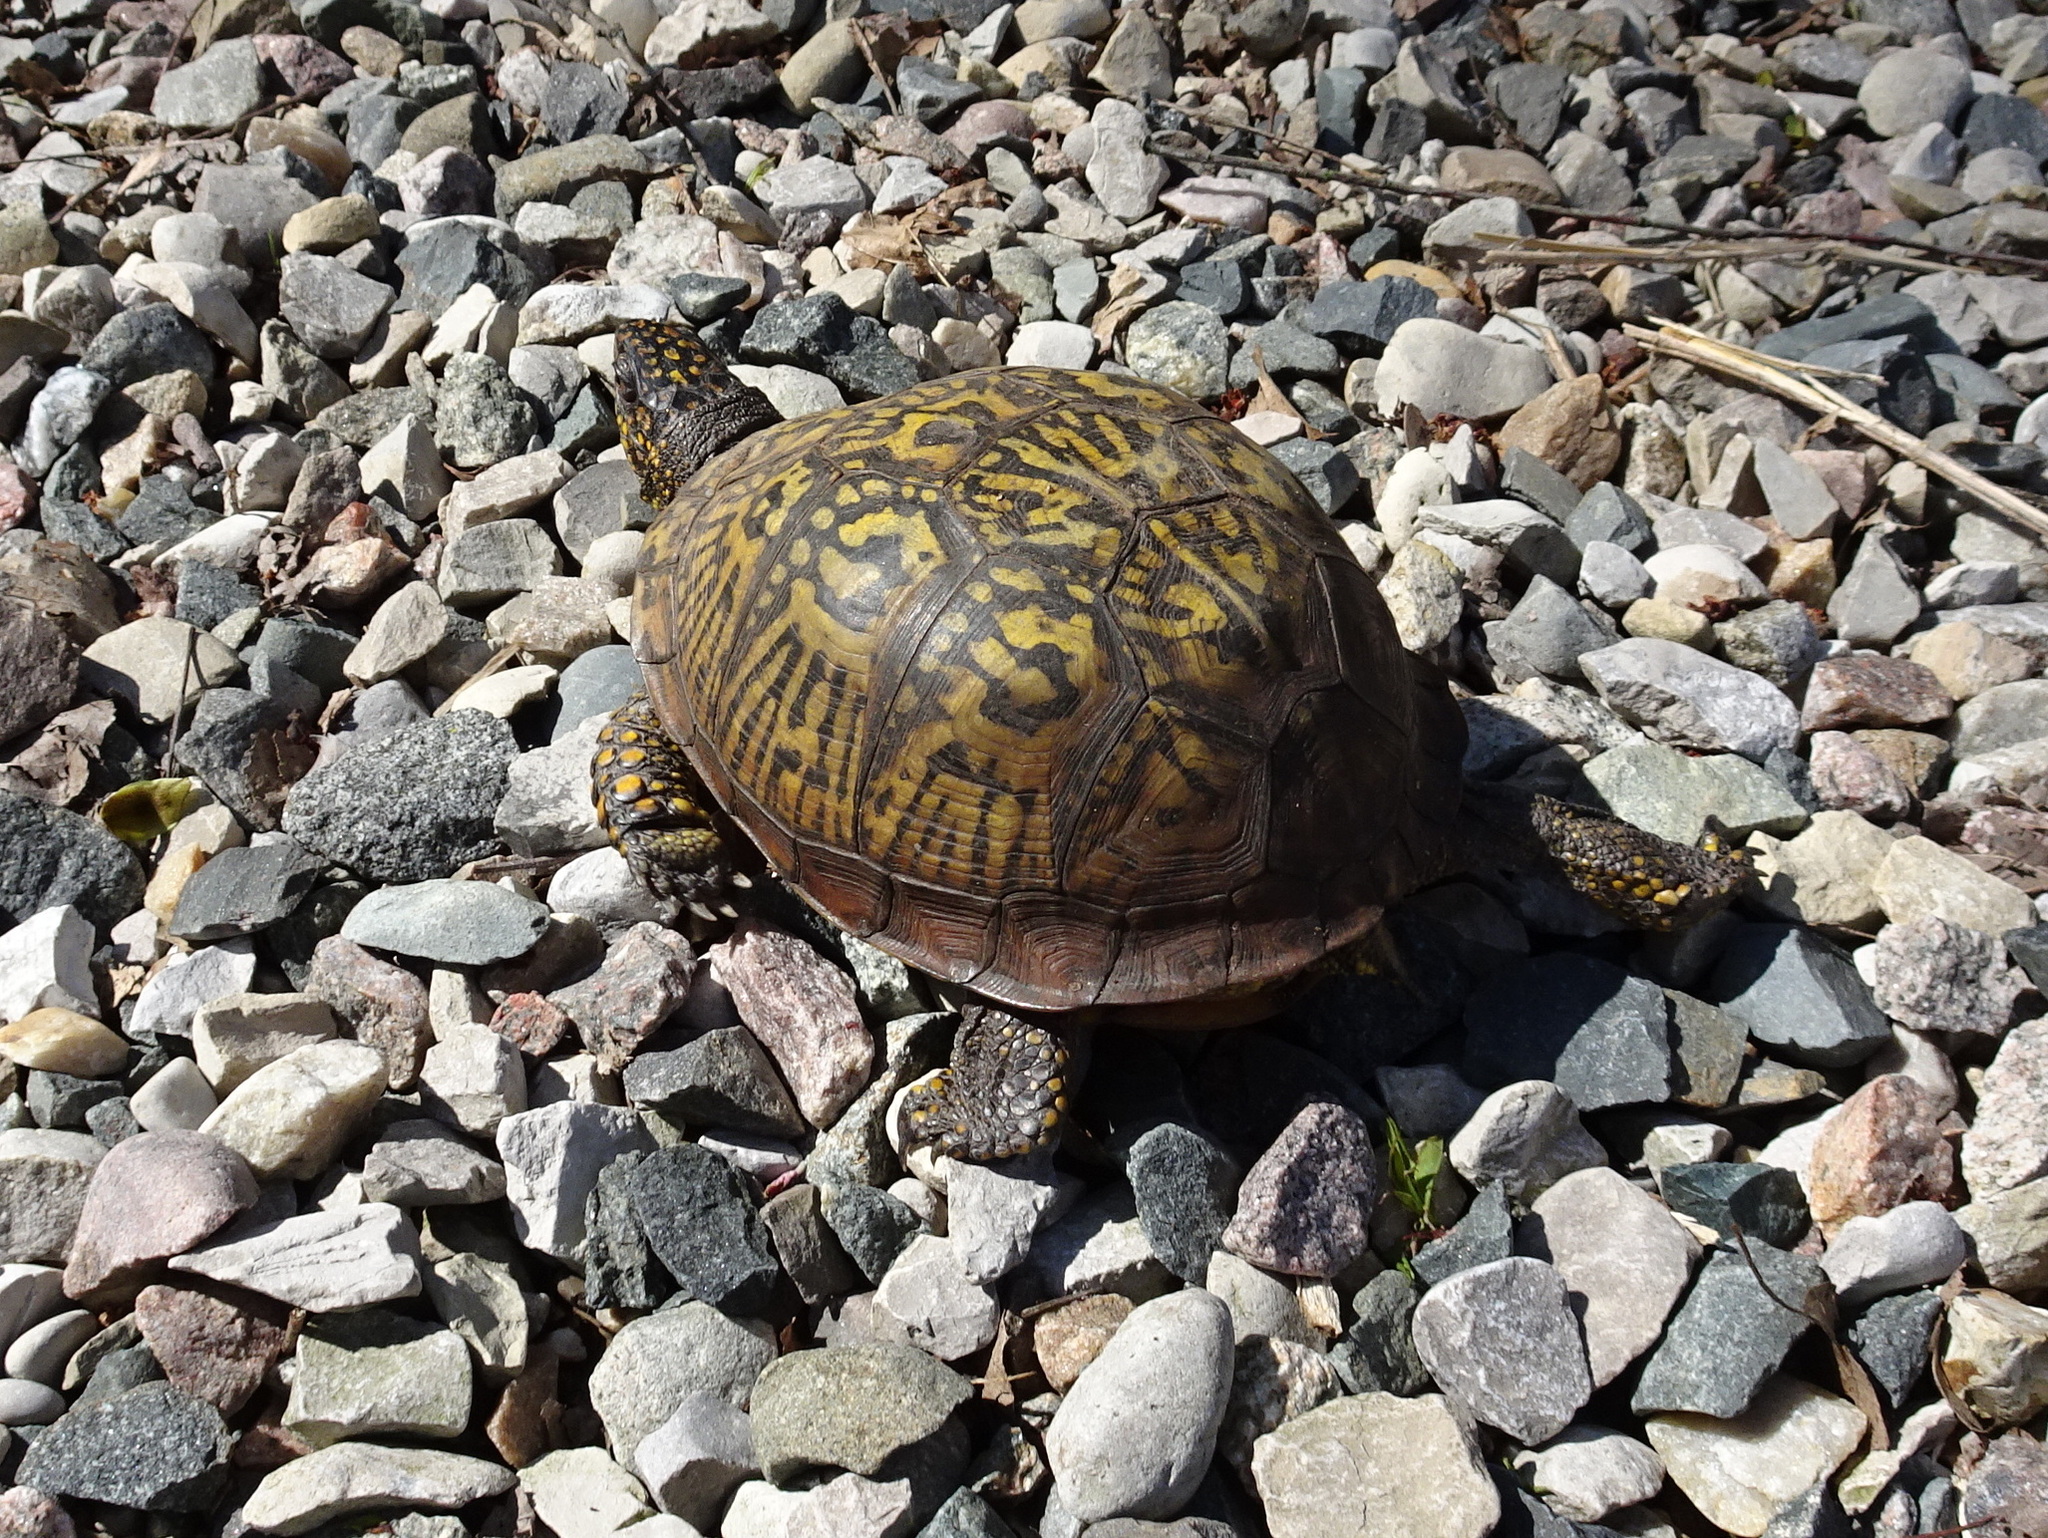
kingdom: Animalia
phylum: Chordata
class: Testudines
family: Emydidae
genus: Terrapene
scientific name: Terrapene carolina
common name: Common box turtle
